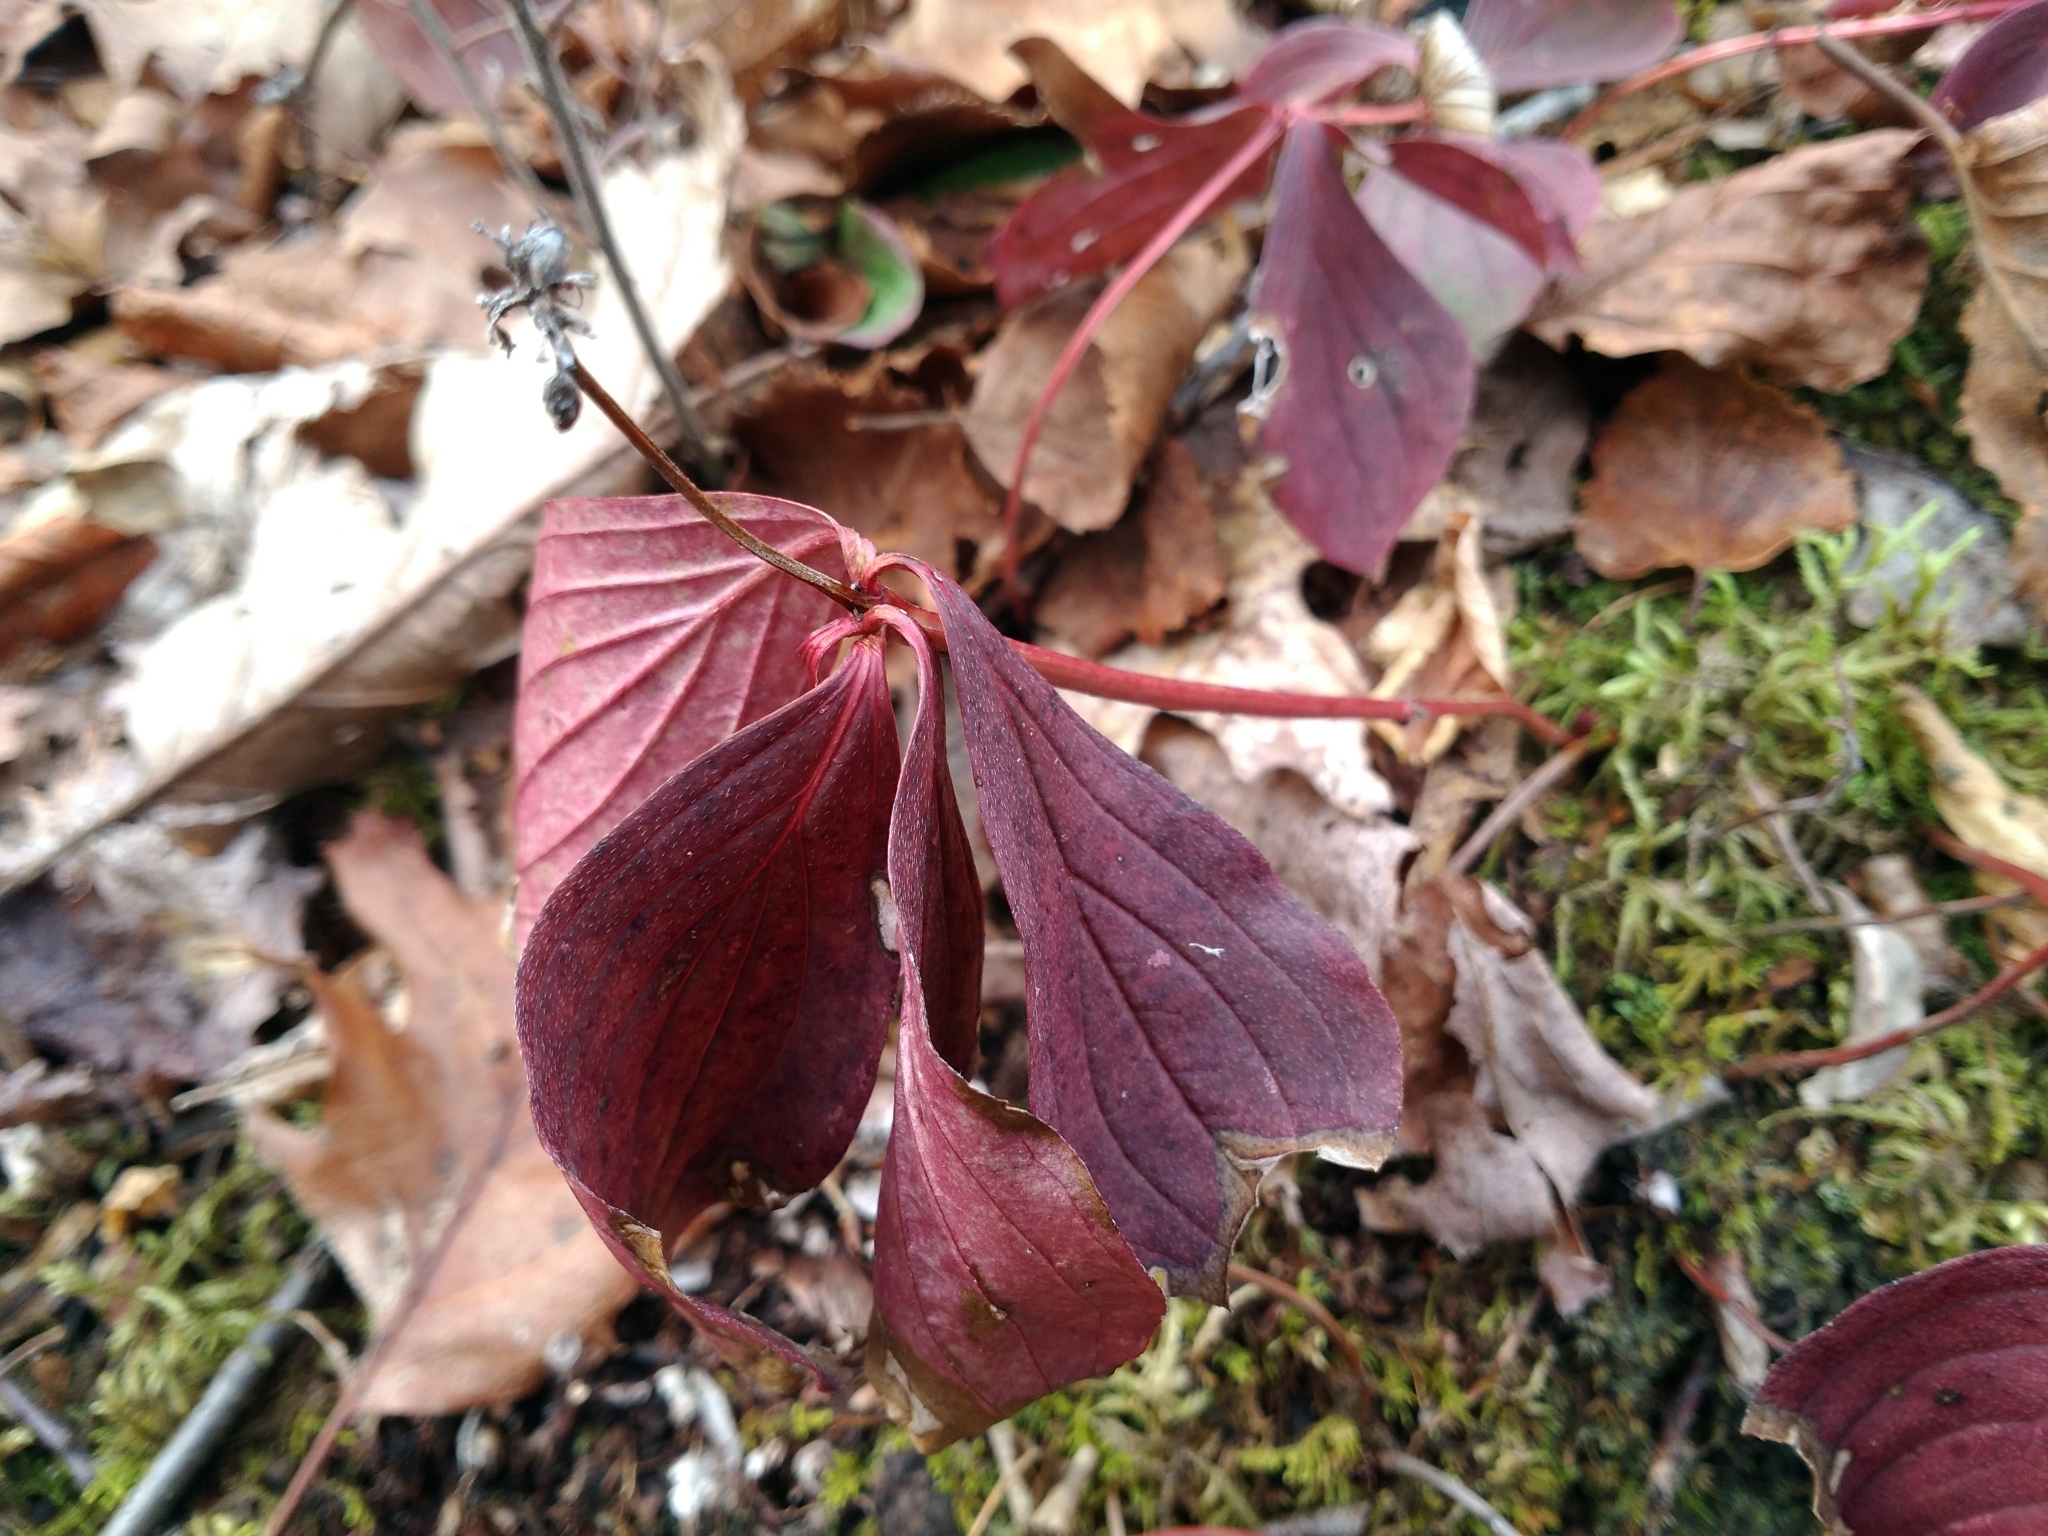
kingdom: Plantae
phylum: Tracheophyta
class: Magnoliopsida
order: Cornales
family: Cornaceae
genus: Cornus
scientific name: Cornus canadensis
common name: Creeping dogwood
